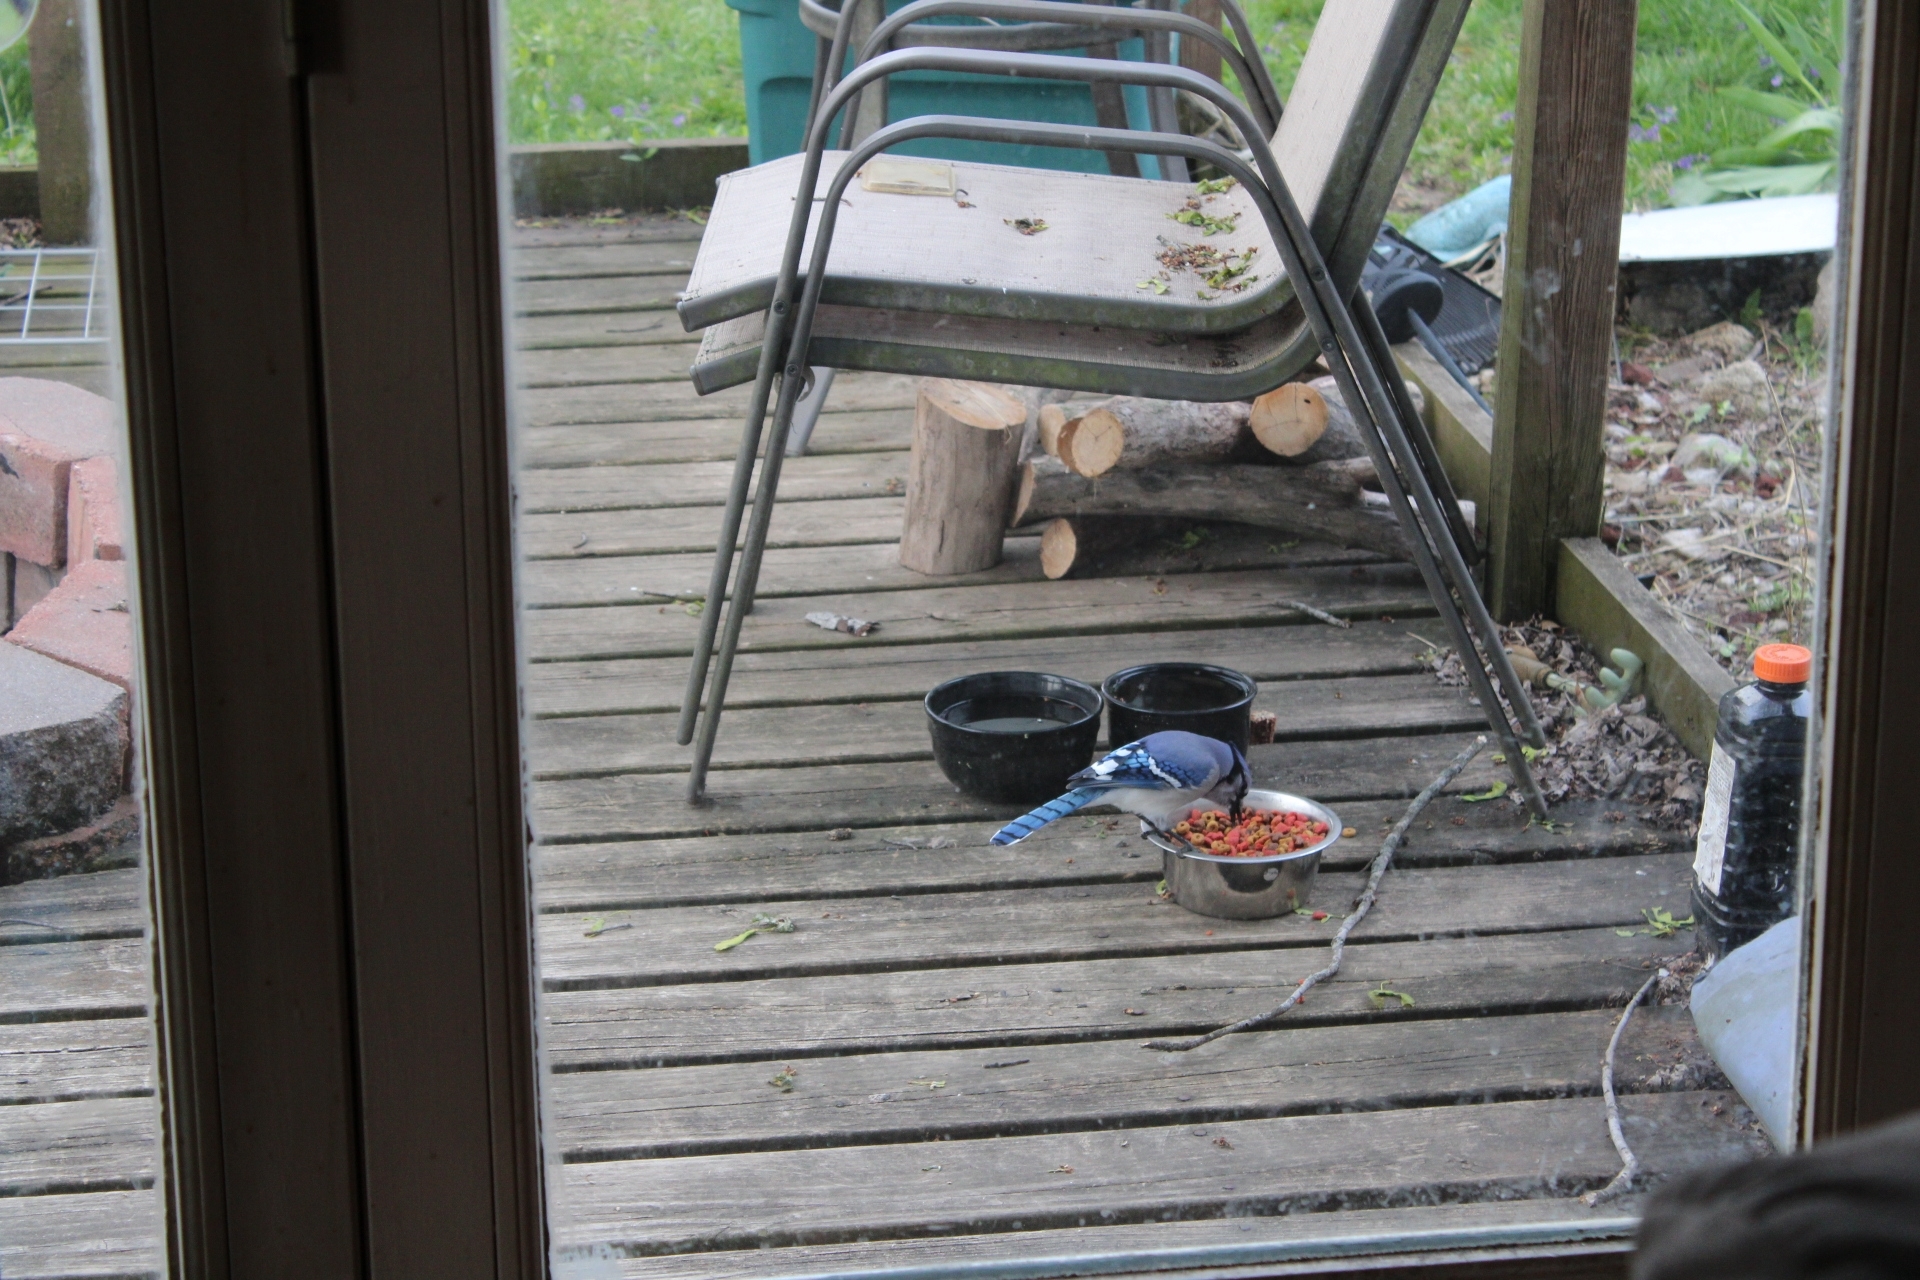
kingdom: Animalia
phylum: Chordata
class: Aves
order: Passeriformes
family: Corvidae
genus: Cyanocitta
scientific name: Cyanocitta cristata
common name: Blue jay
